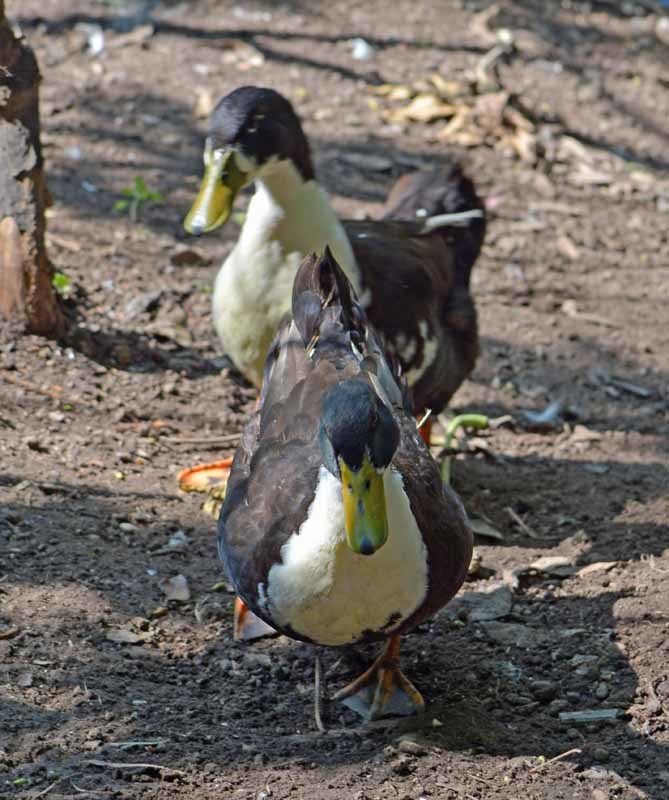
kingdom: Animalia
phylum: Chordata
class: Aves
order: Anseriformes
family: Anatidae
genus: Anas
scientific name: Anas platyrhynchos
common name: Mallard
